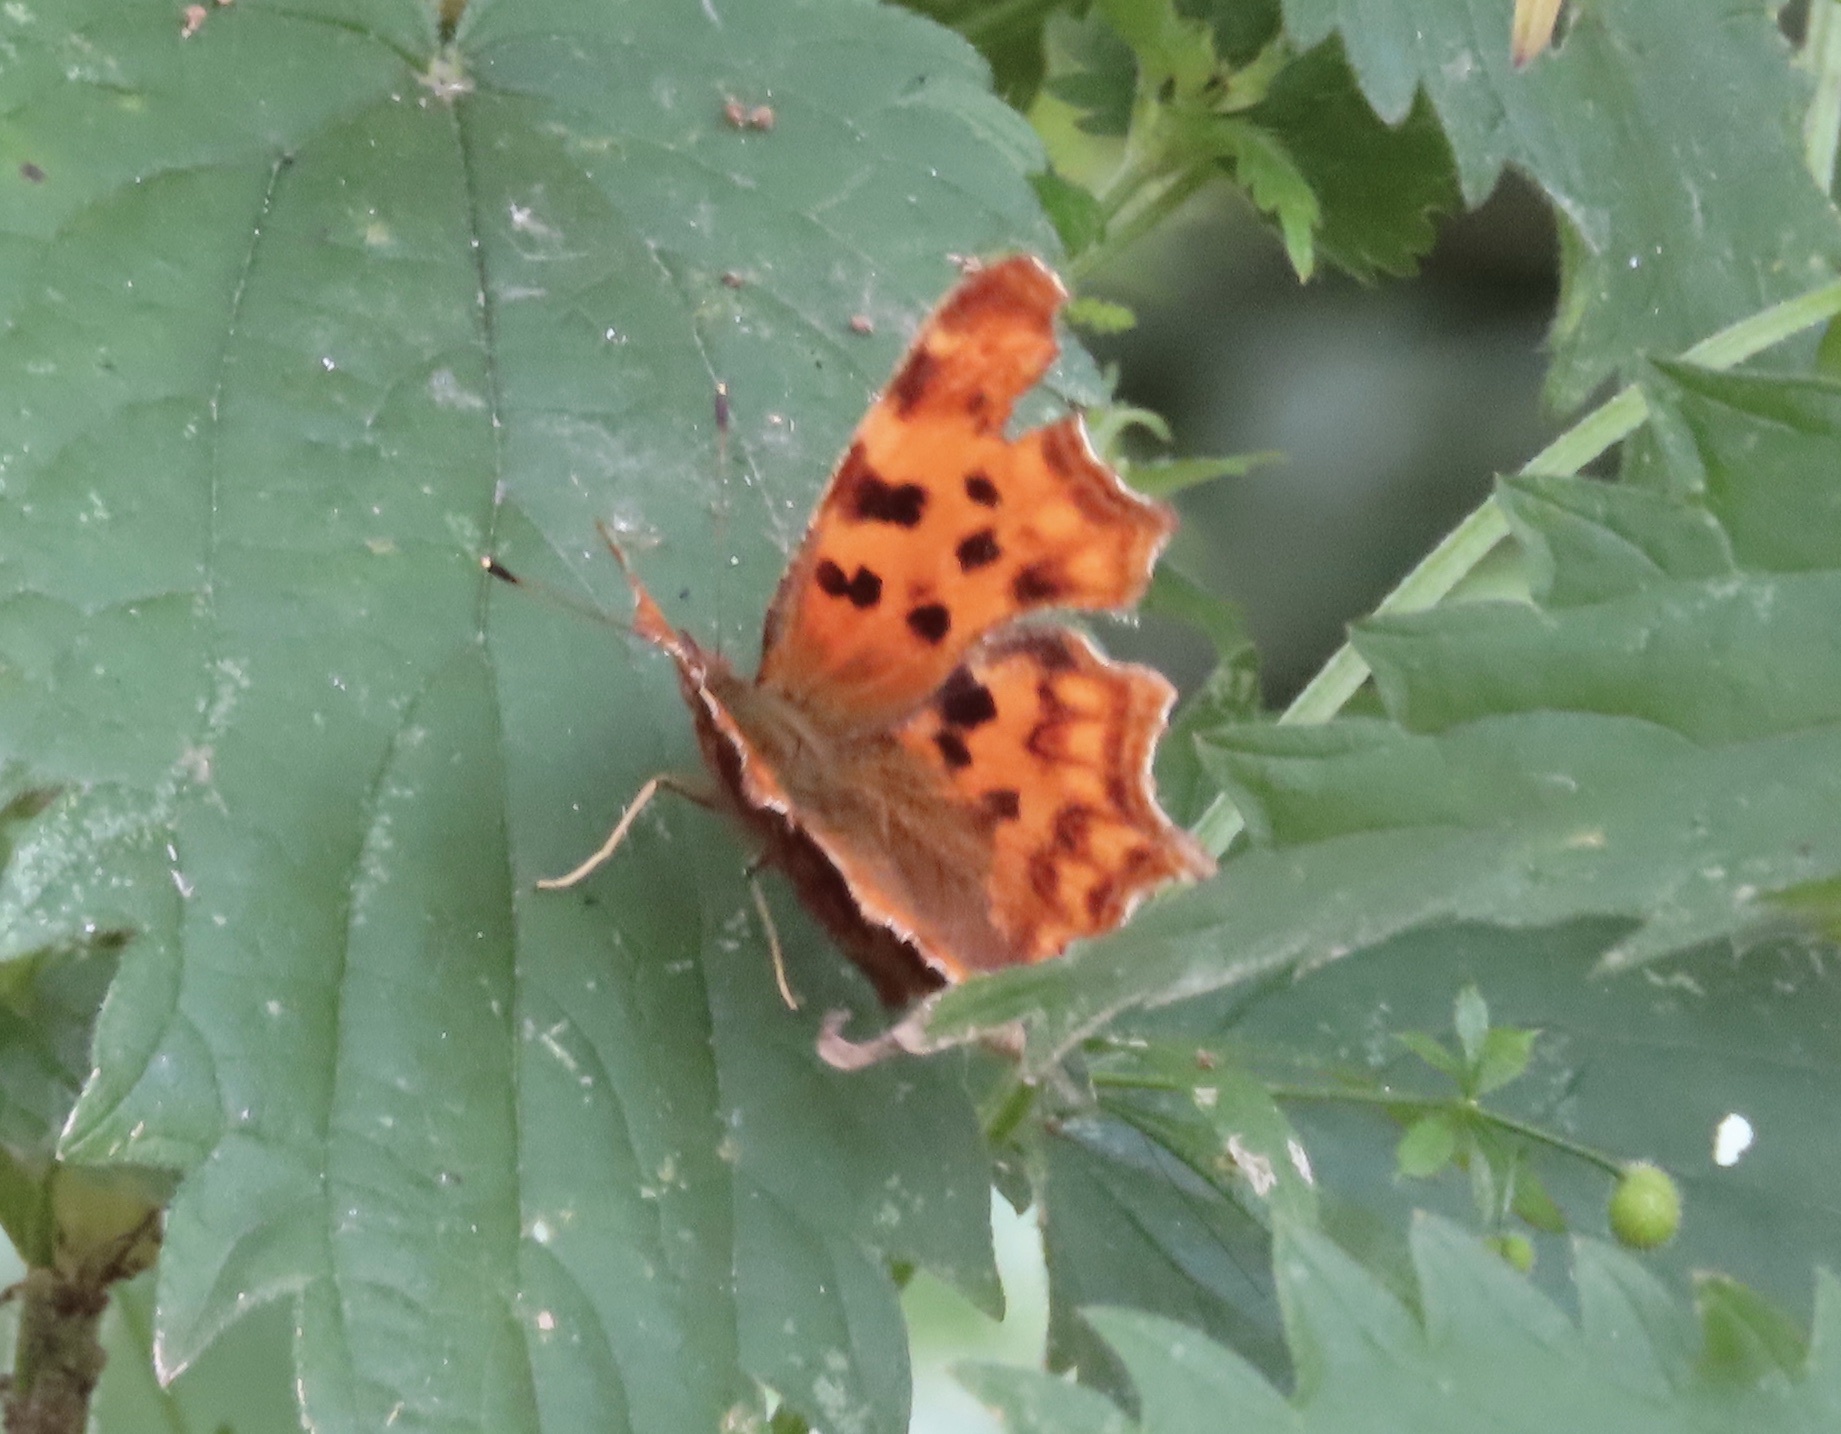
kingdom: Animalia
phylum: Arthropoda
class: Insecta
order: Lepidoptera
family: Nymphalidae
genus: Polygonia
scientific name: Polygonia c-album
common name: Comma
